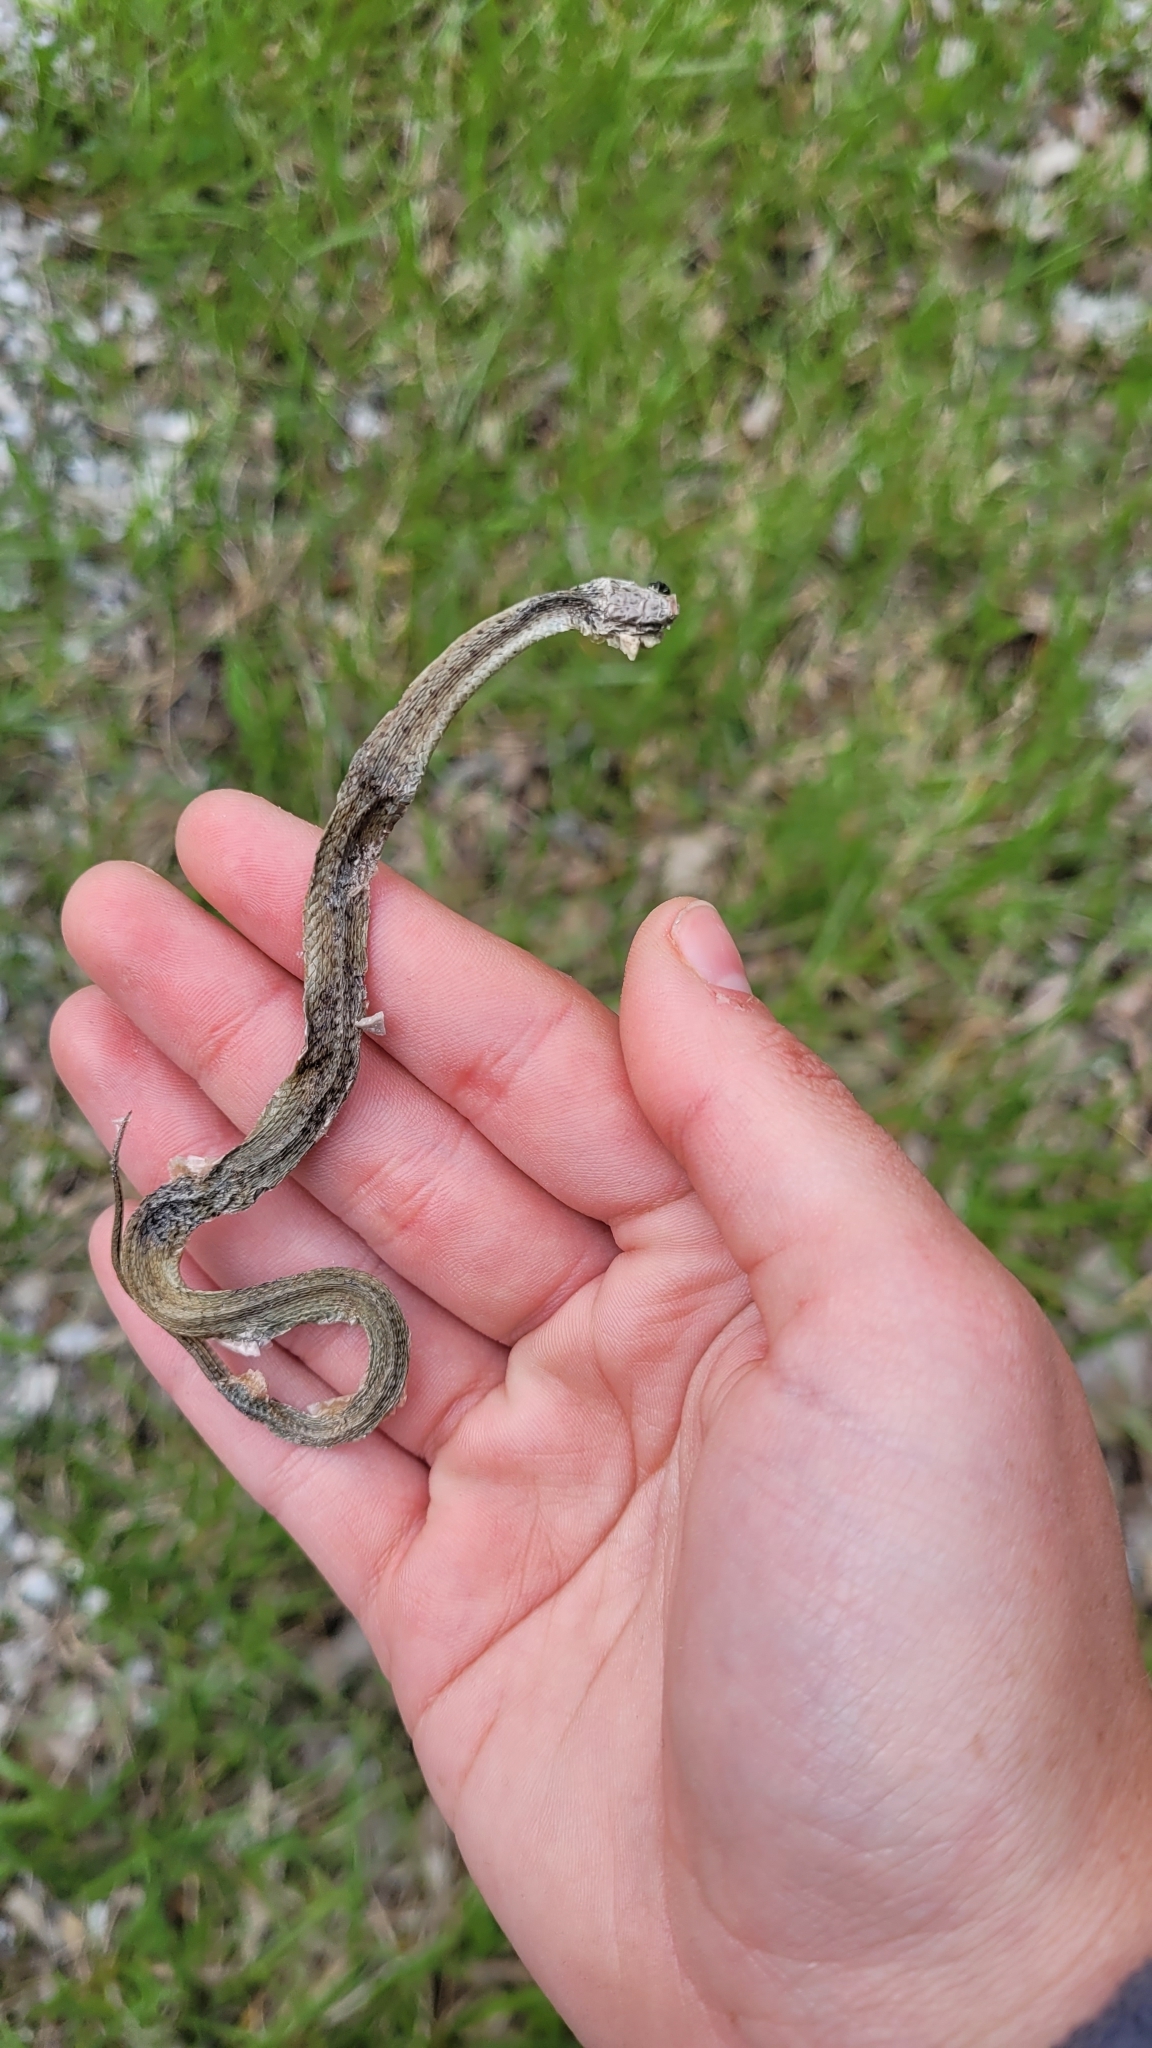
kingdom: Animalia
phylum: Chordata
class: Squamata
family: Colubridae
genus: Storeria
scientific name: Storeria dekayi
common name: (dekay’s) brown snake
